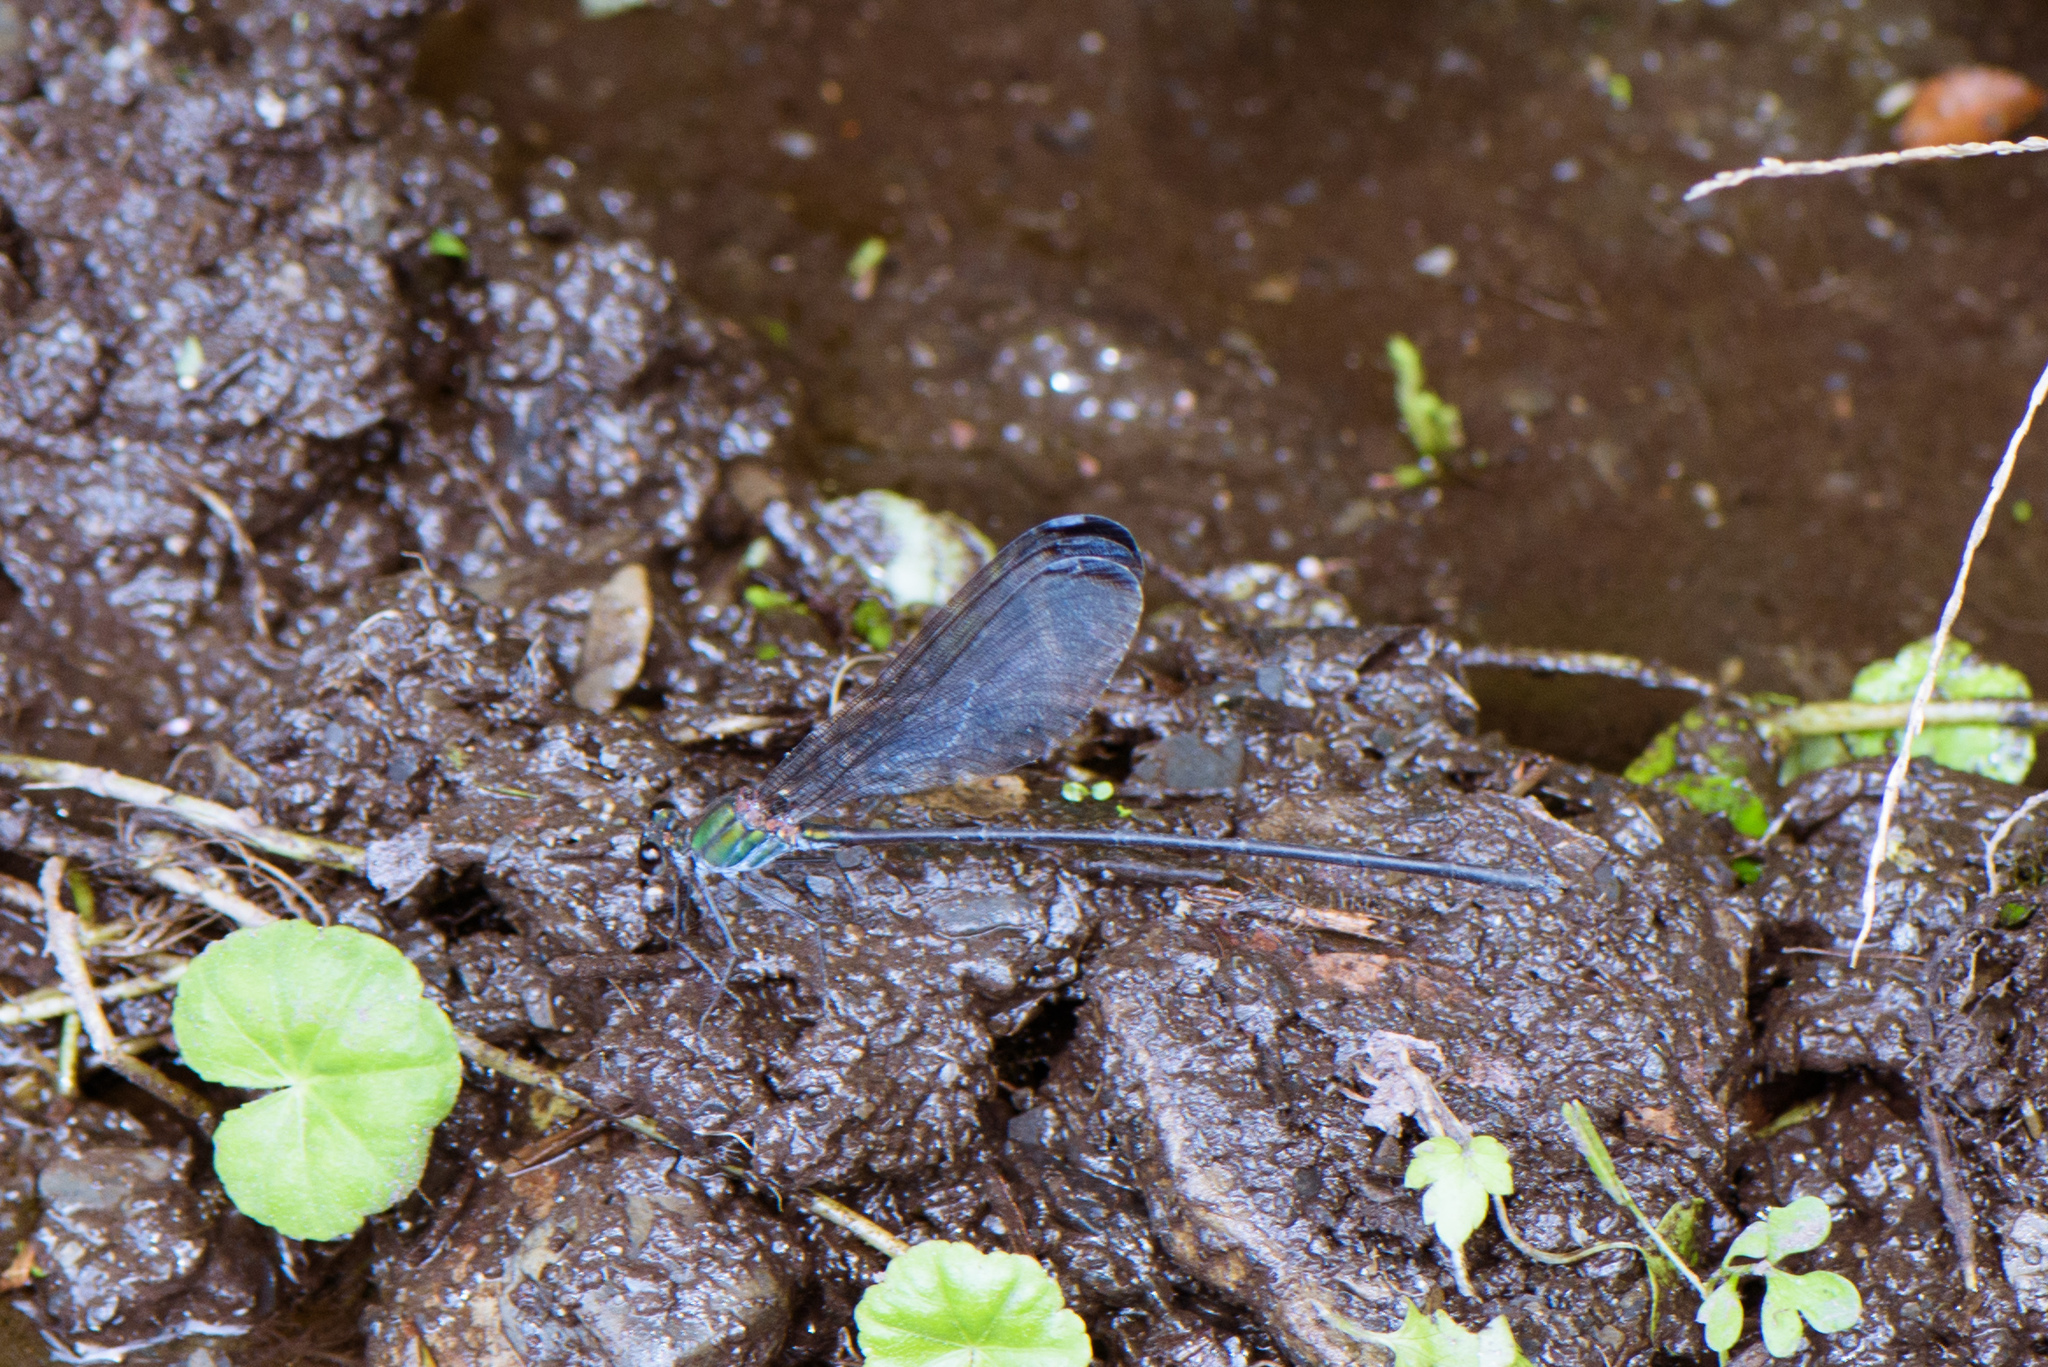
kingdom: Animalia
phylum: Arthropoda
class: Insecta
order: Odonata
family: Calopterygidae
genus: Psolodesmus
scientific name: Psolodesmus mandarinus
